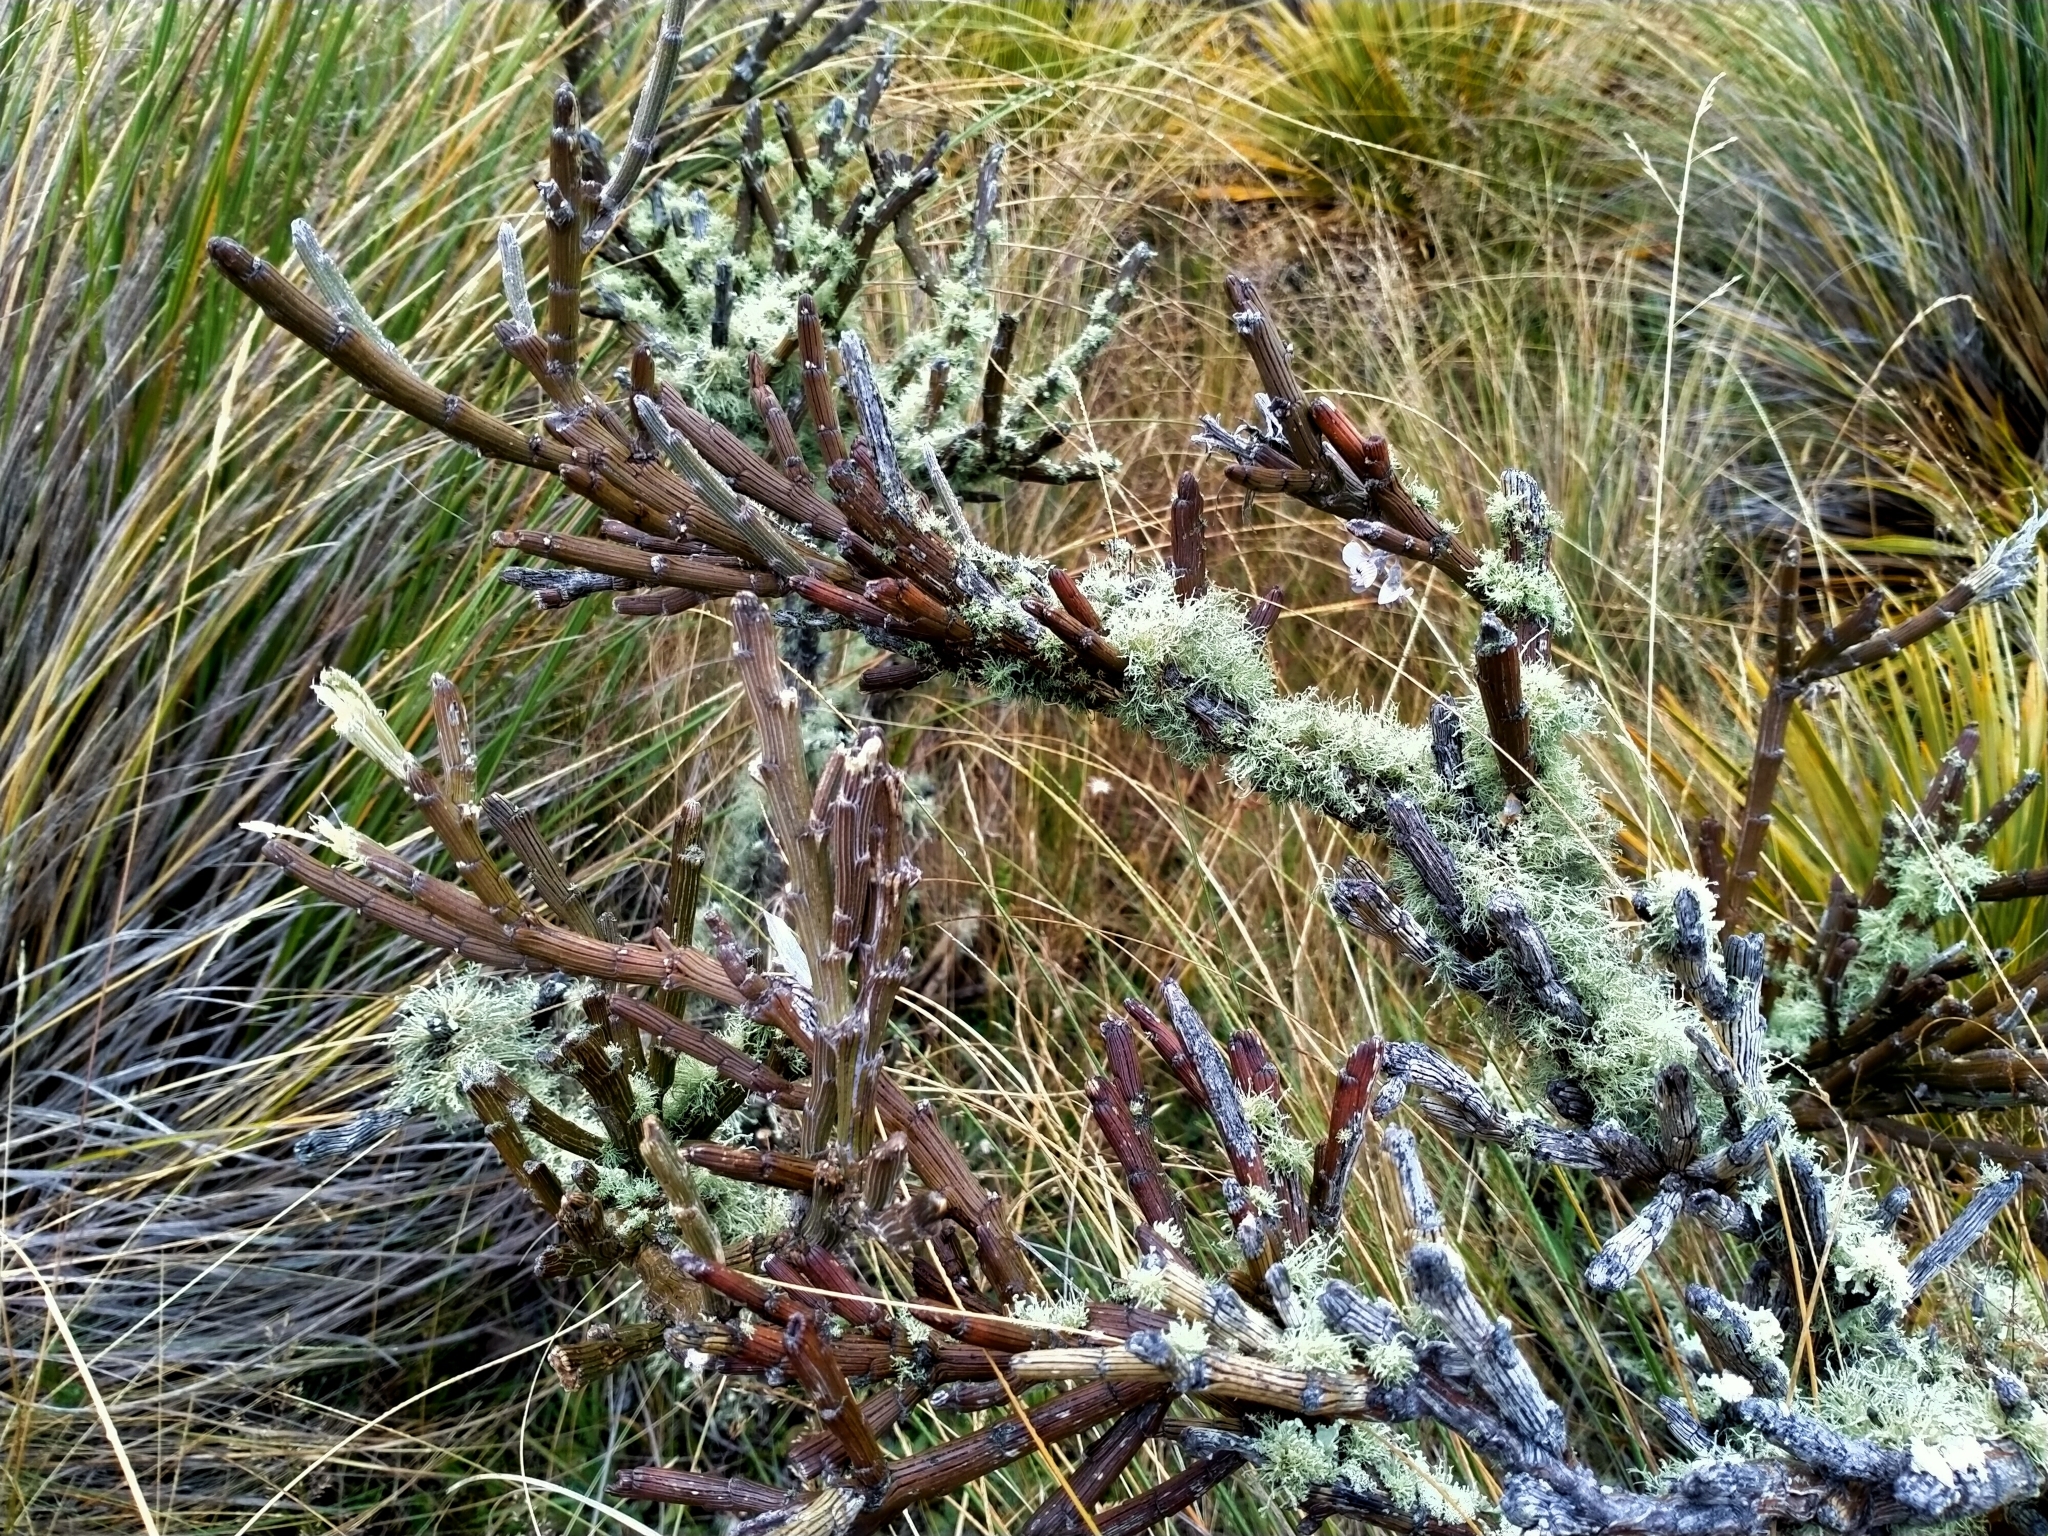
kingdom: Plantae
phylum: Tracheophyta
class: Magnoliopsida
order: Fabales
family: Fabaceae
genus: Carmichaelia
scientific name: Carmichaelia crassicaulis
